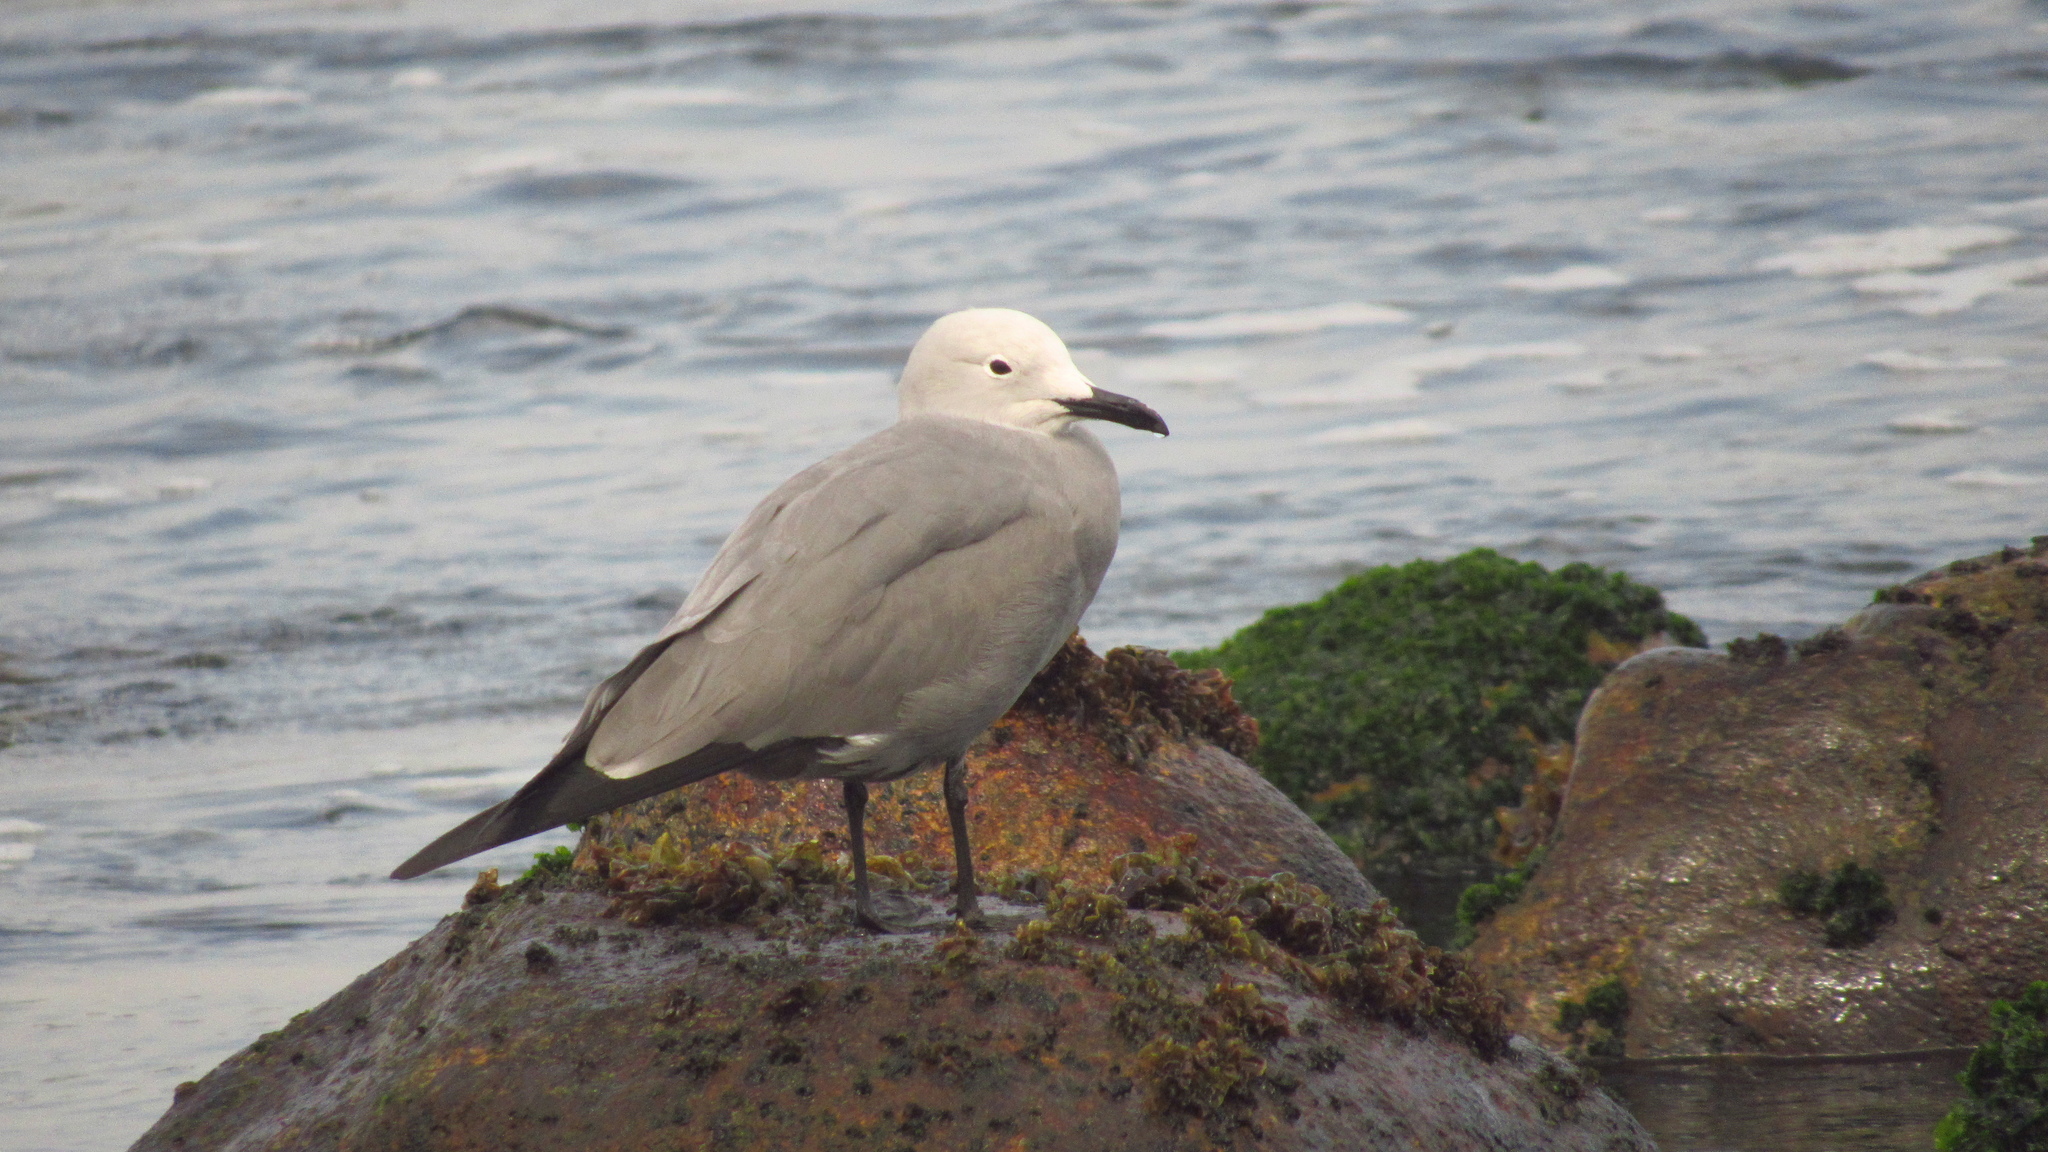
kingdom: Animalia
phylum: Chordata
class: Aves
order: Charadriiformes
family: Laridae
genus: Leucophaeus
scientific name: Leucophaeus modestus
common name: Gray gull
